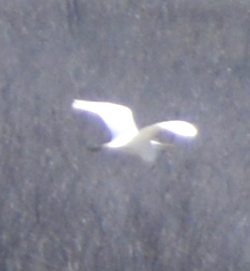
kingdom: Animalia
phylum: Chordata
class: Aves
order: Pelecaniformes
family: Ardeidae
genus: Ardea
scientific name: Ardea alba
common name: Great egret
